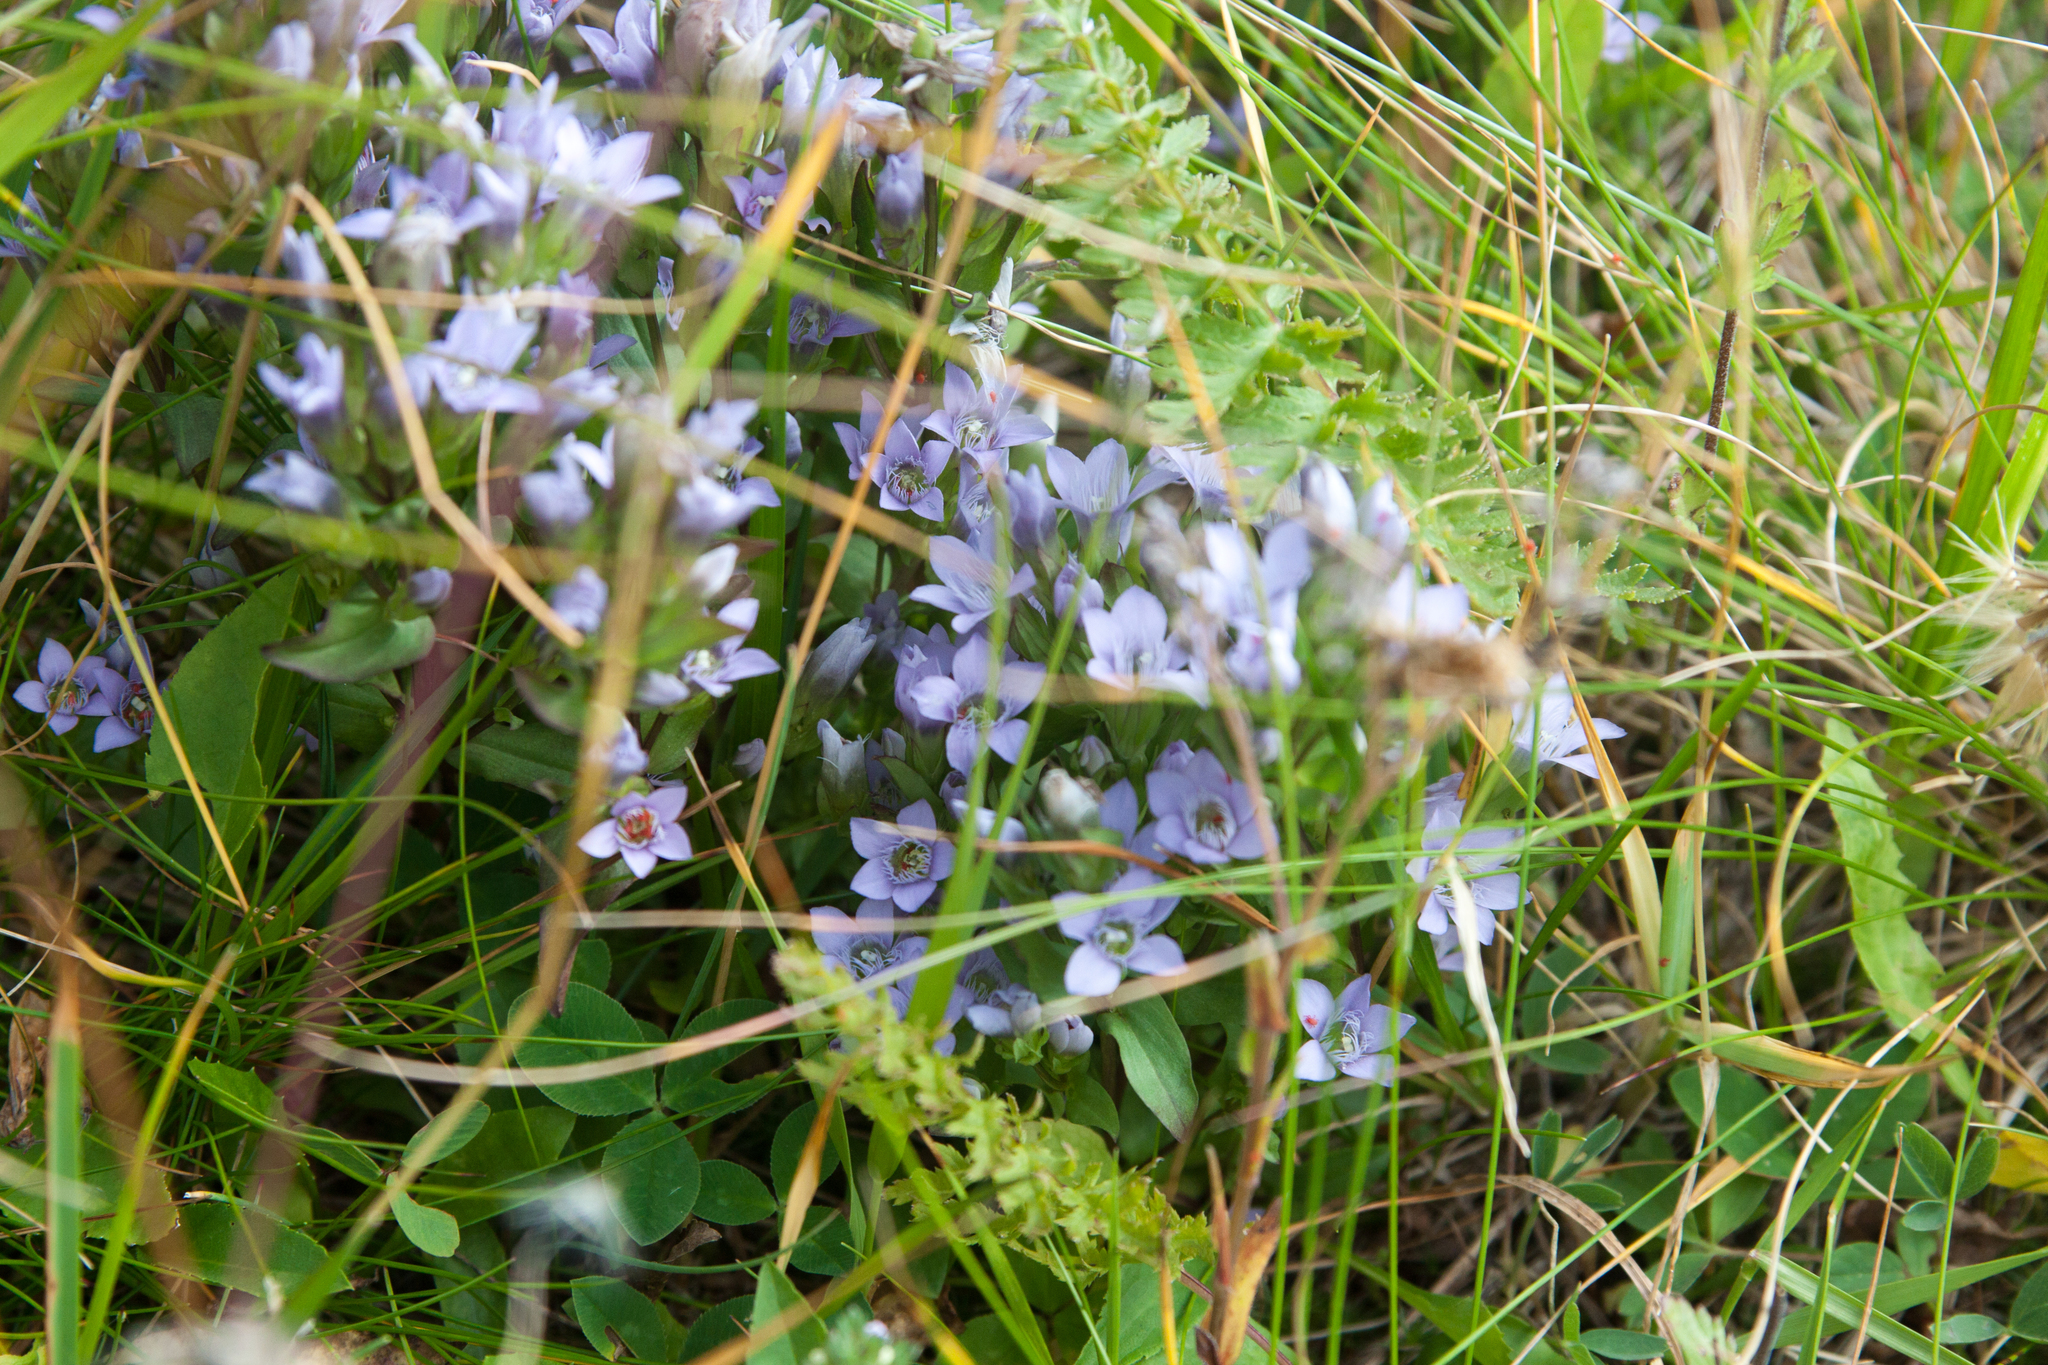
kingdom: Plantae
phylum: Tracheophyta
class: Magnoliopsida
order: Gentianales
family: Gentianaceae
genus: Gentianella
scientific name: Gentianella biebersteinii
